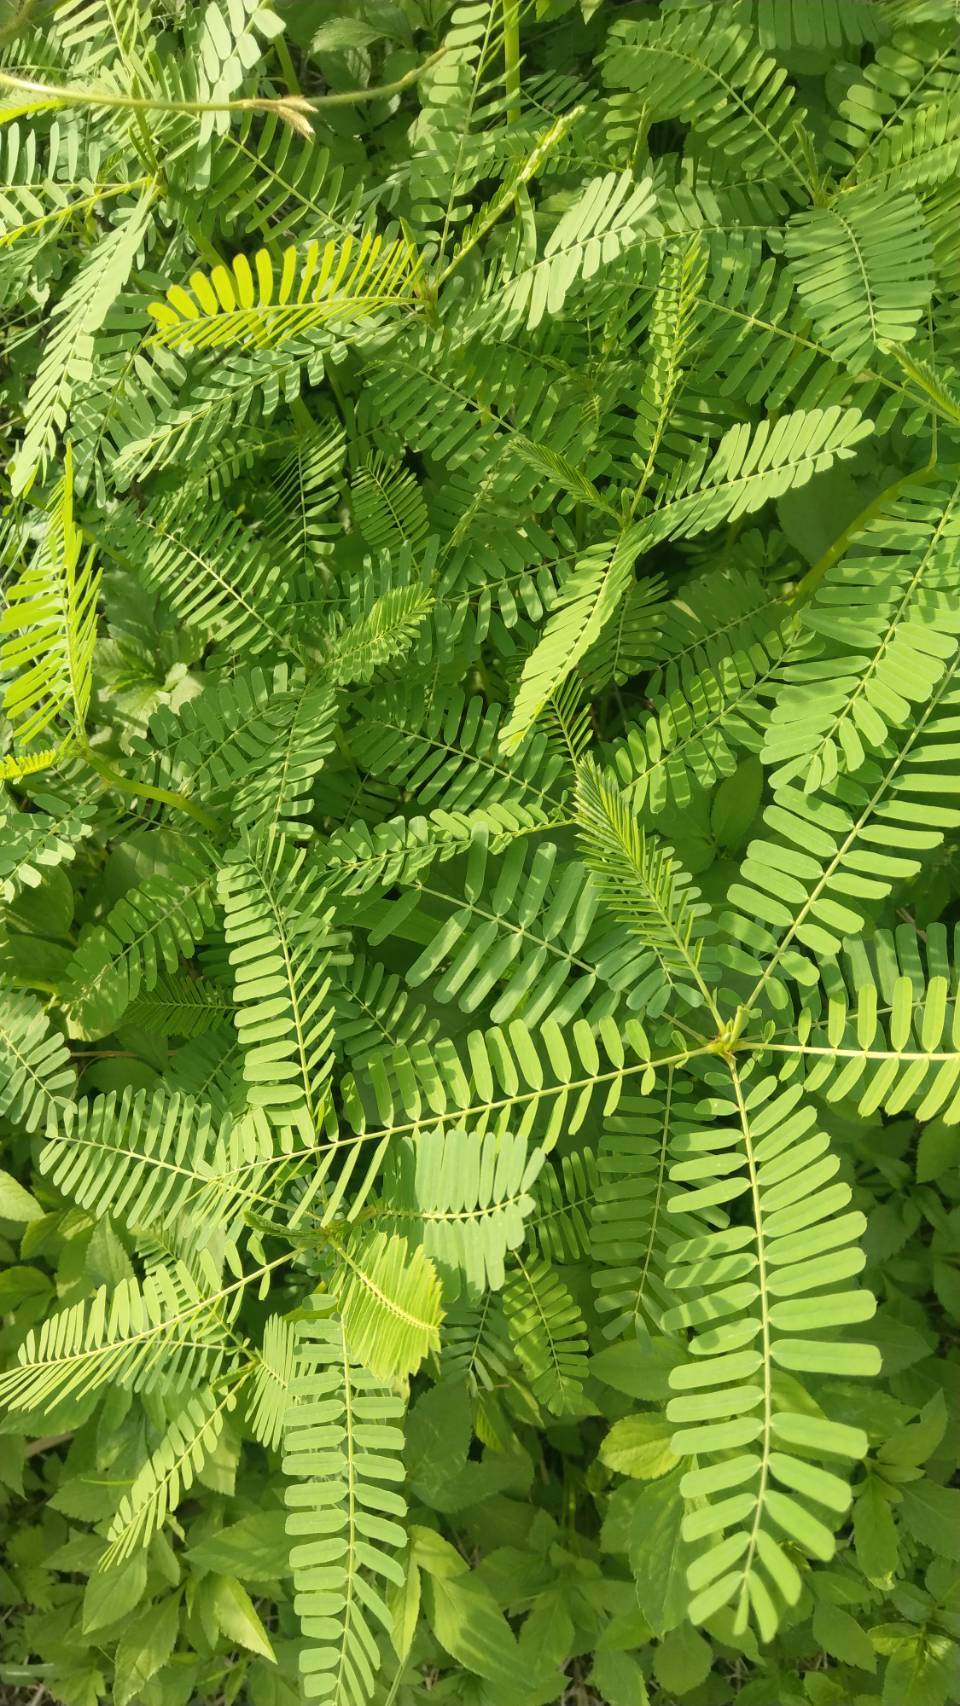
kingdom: Plantae
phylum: Tracheophyta
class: Magnoliopsida
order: Fabales
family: Fabaceae
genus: Sesbania
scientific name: Sesbania cannabina
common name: Canicha
